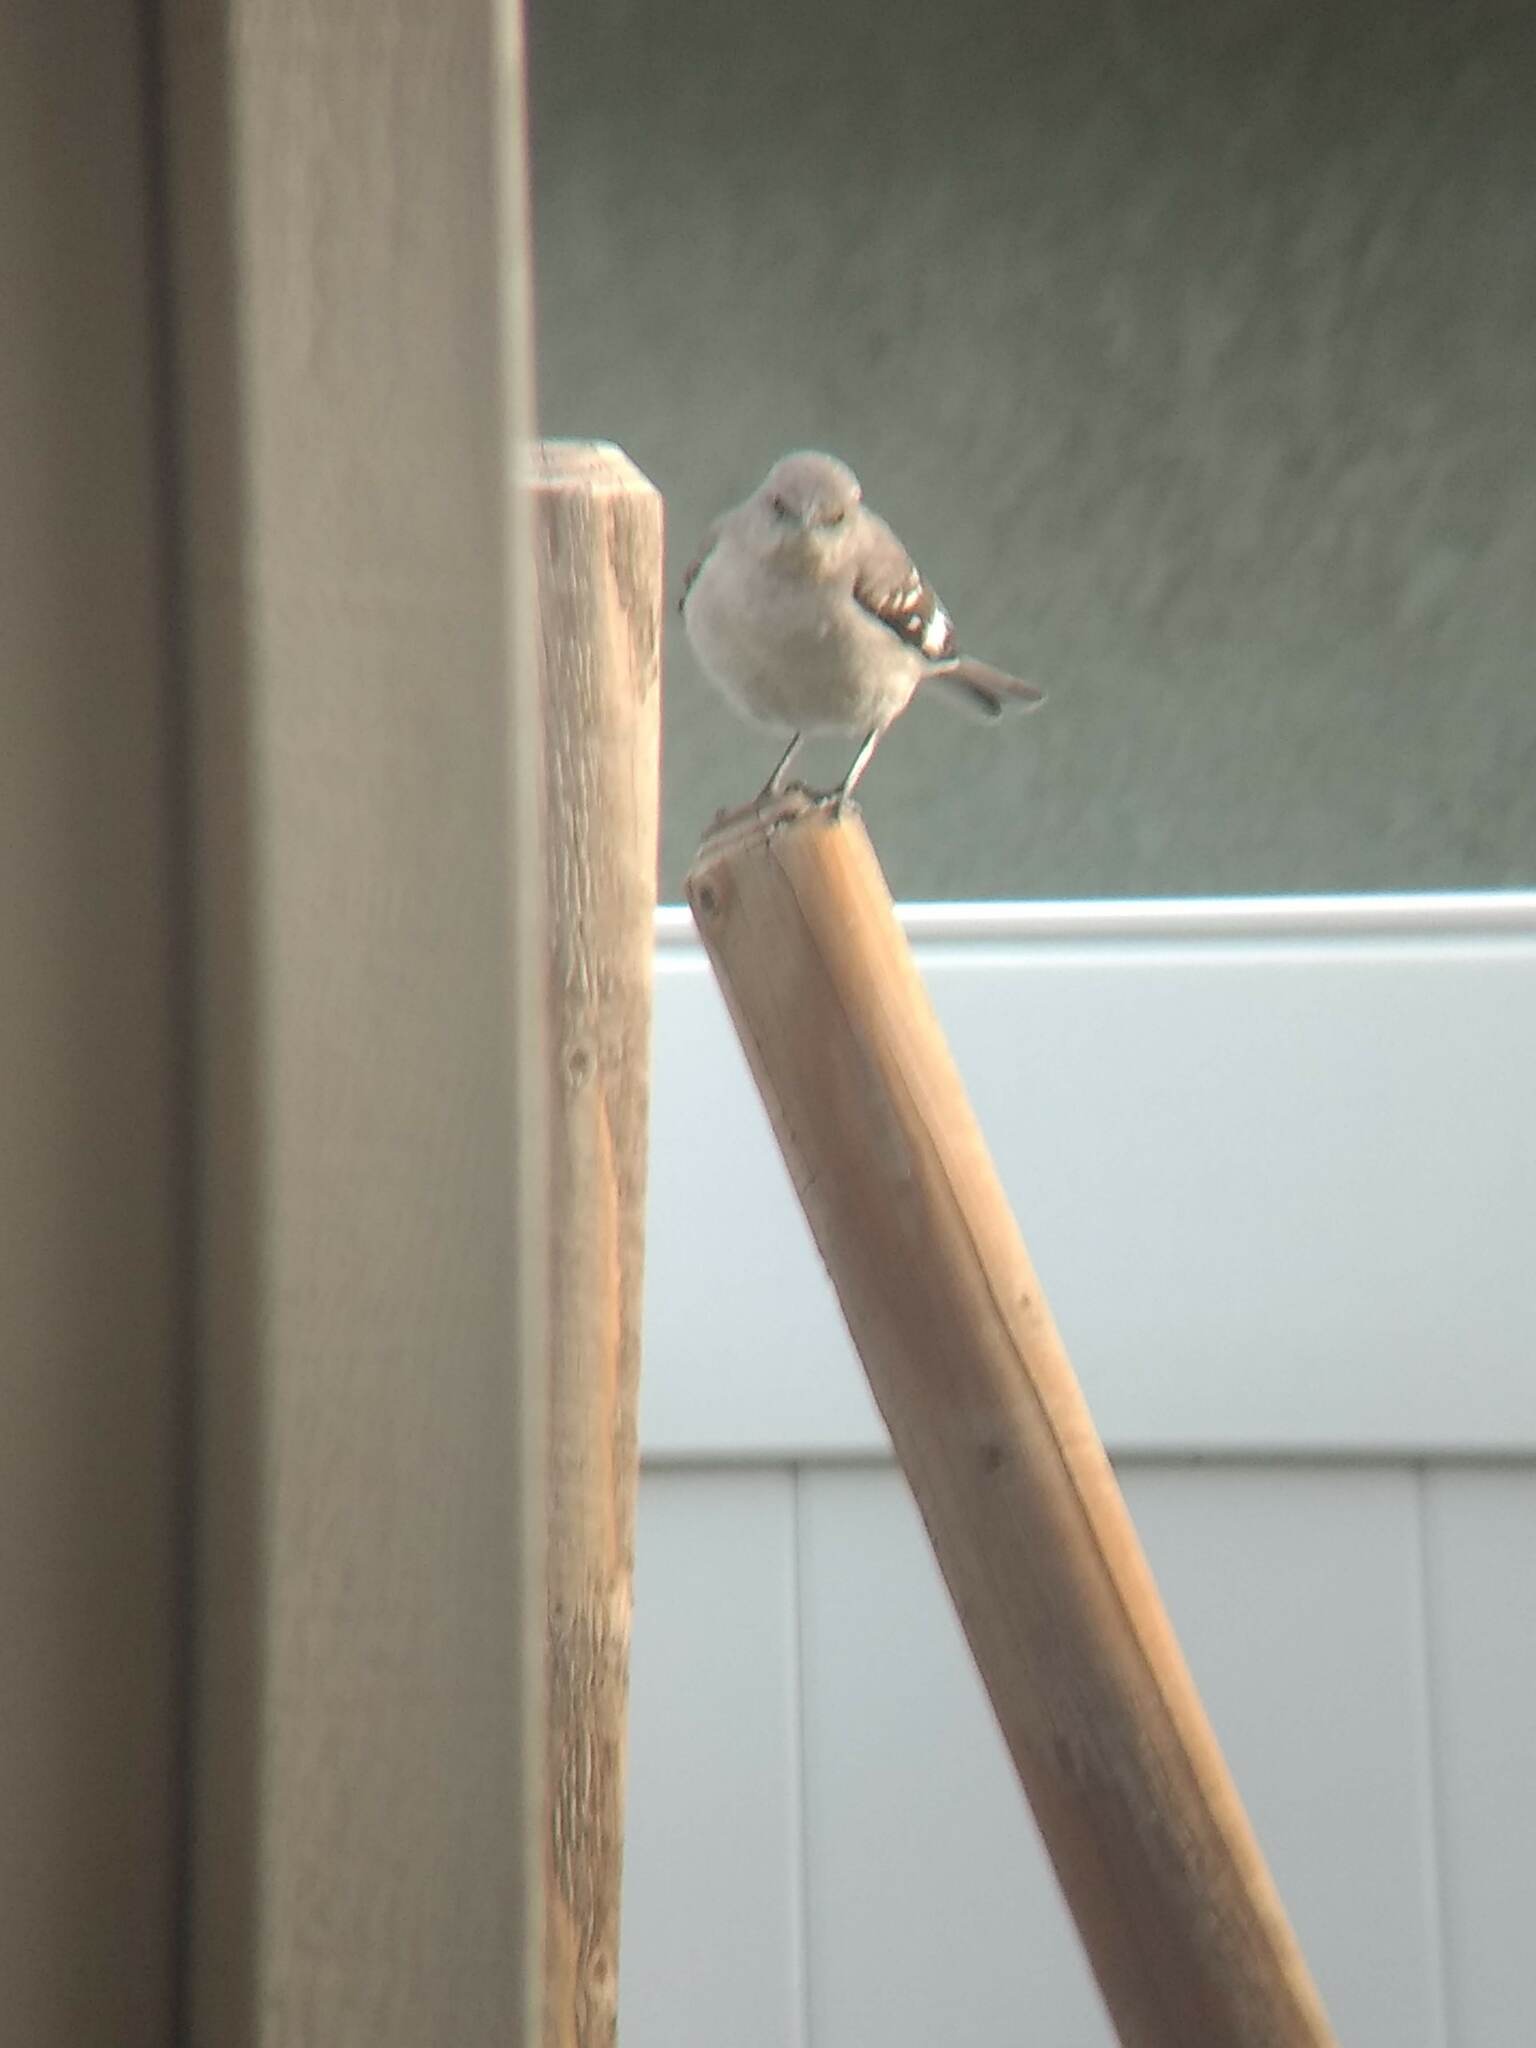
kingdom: Animalia
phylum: Chordata
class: Aves
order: Passeriformes
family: Mimidae
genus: Mimus
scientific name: Mimus polyglottos
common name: Northern mockingbird
